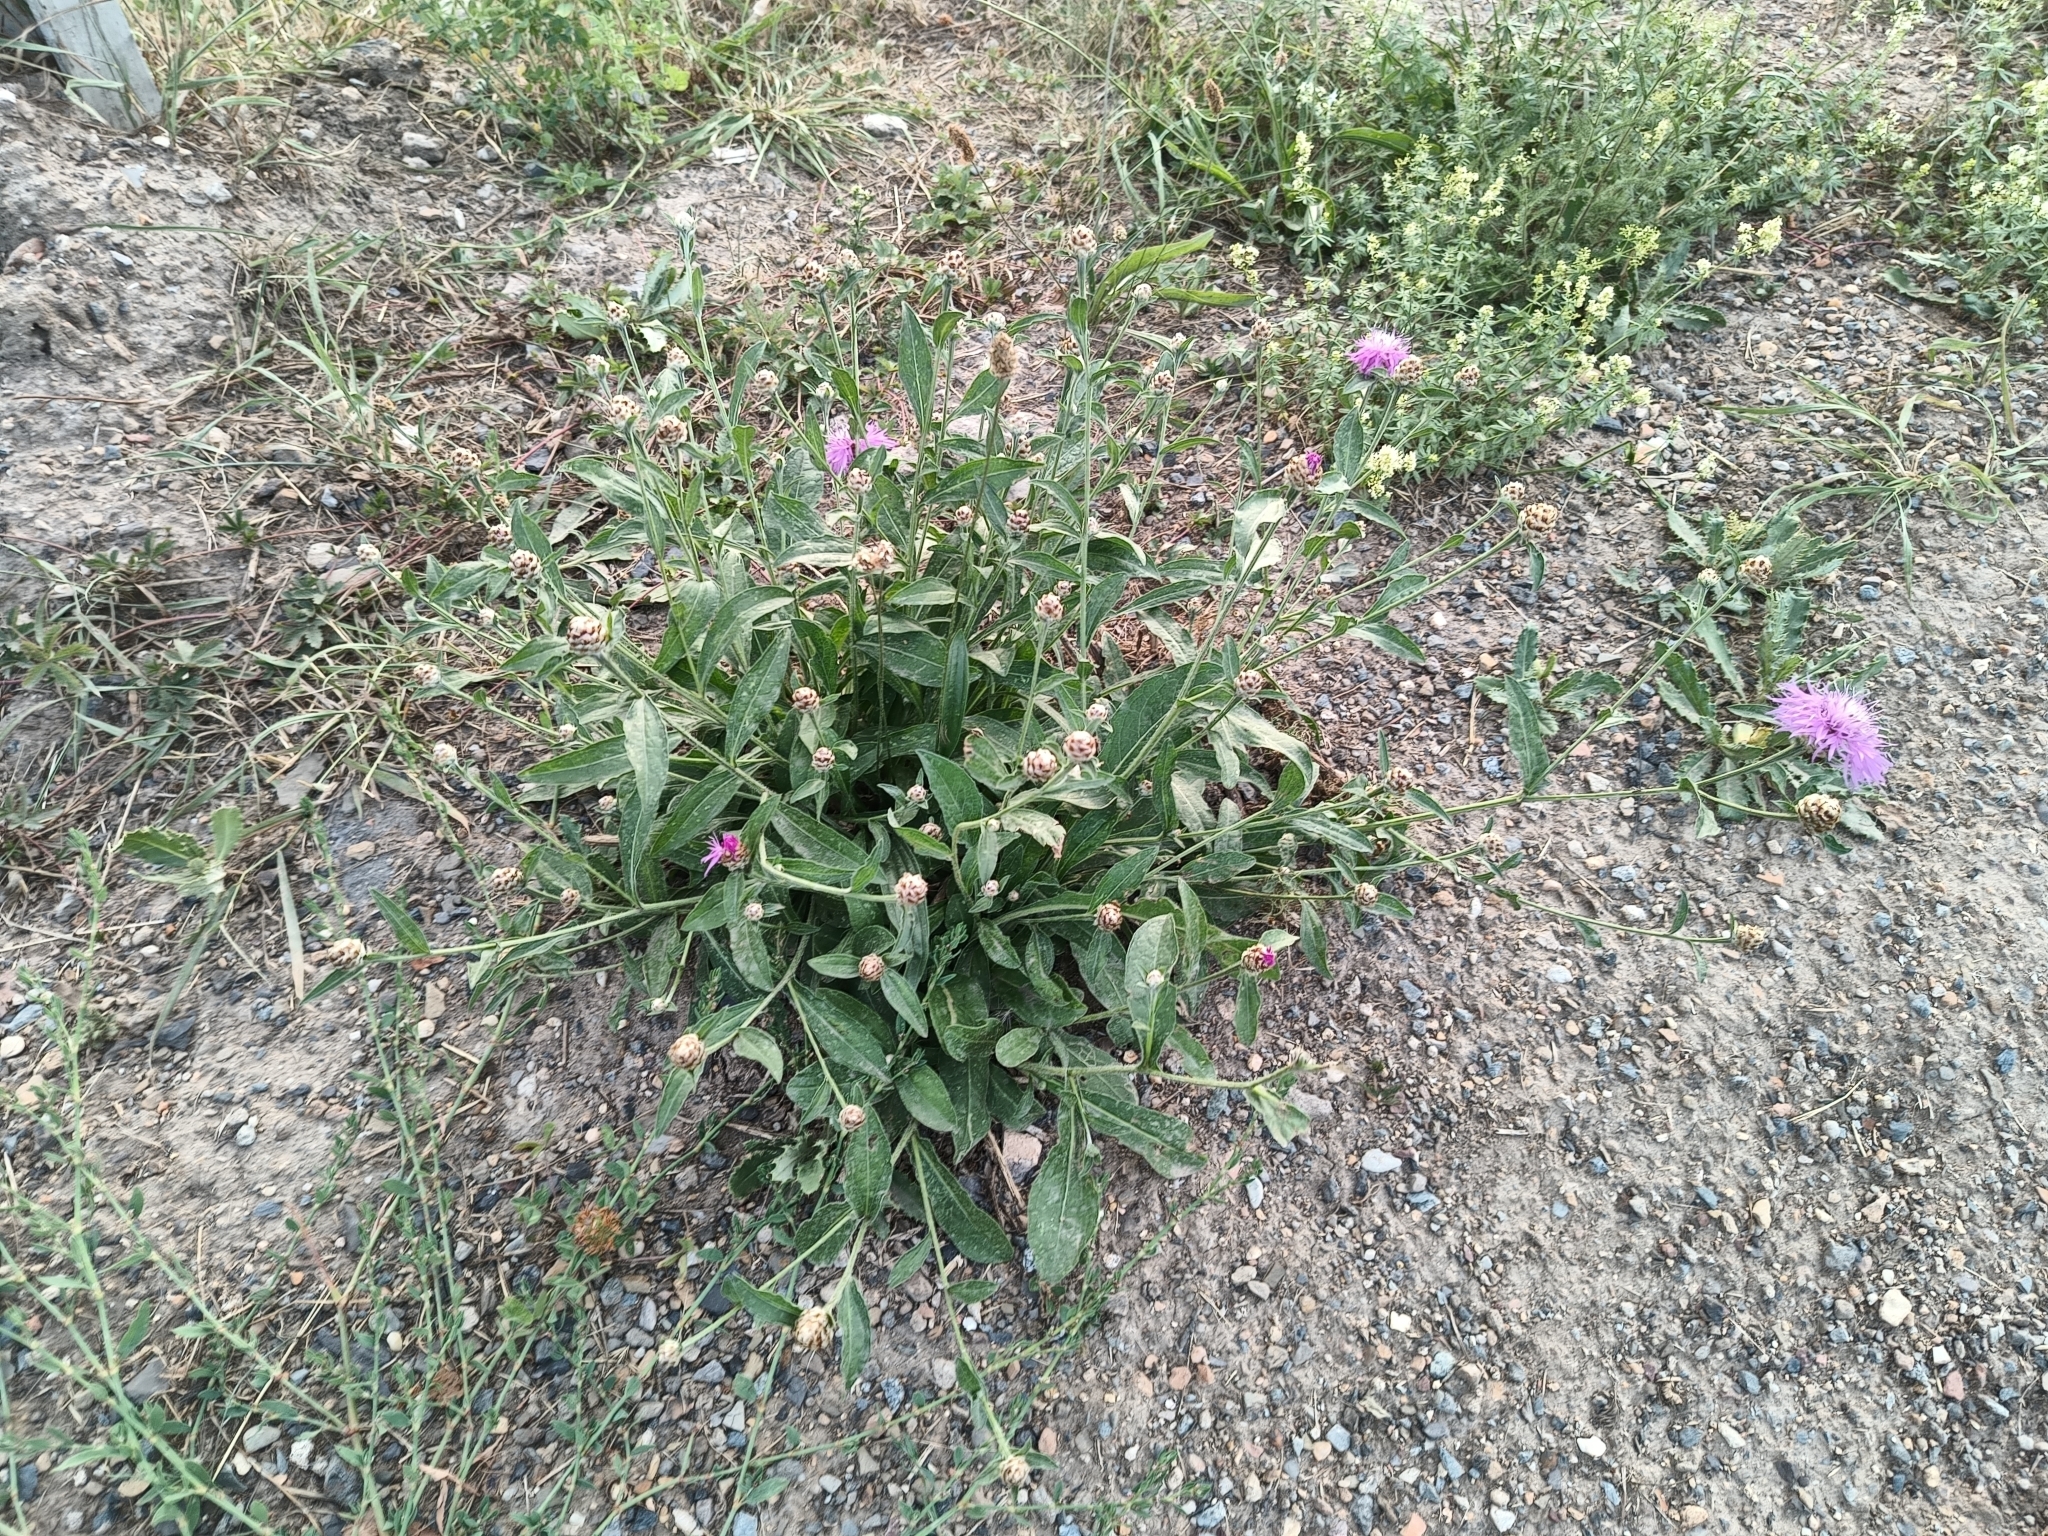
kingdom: Plantae
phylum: Tracheophyta
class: Magnoliopsida
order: Asterales
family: Asteraceae
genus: Centaurea
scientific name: Centaurea jacea
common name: Brown knapweed
